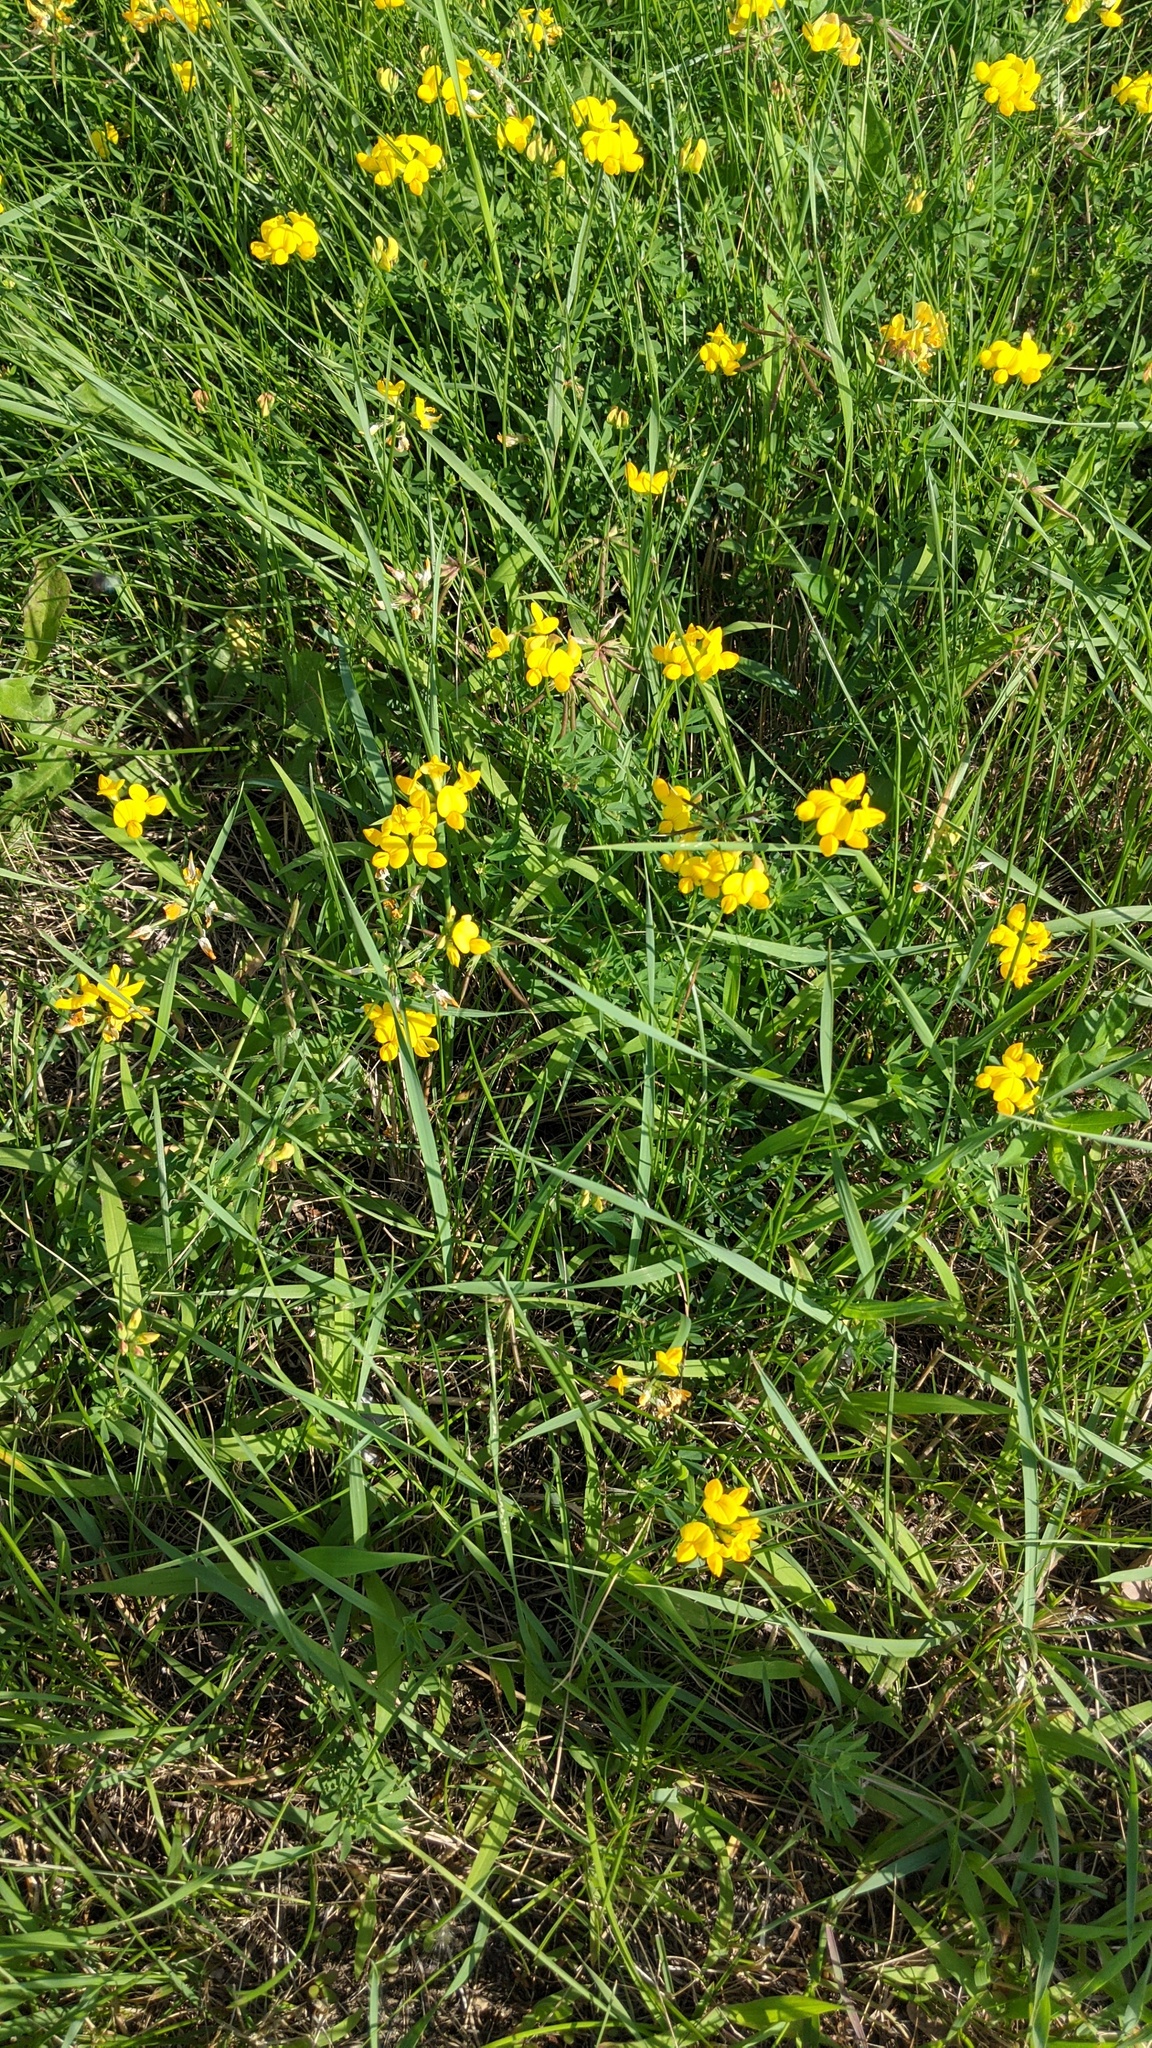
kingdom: Plantae
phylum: Tracheophyta
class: Magnoliopsida
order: Fabales
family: Fabaceae
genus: Lotus
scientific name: Lotus corniculatus
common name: Common bird's-foot-trefoil
